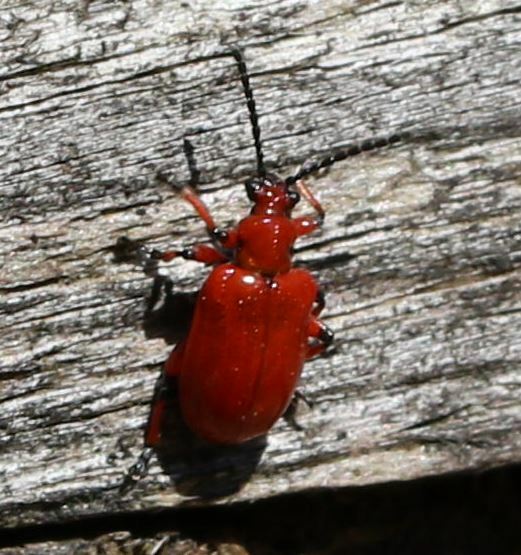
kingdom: Animalia
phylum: Arthropoda
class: Insecta
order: Coleoptera
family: Chrysomelidae
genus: Lilioceris
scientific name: Lilioceris merdigera
